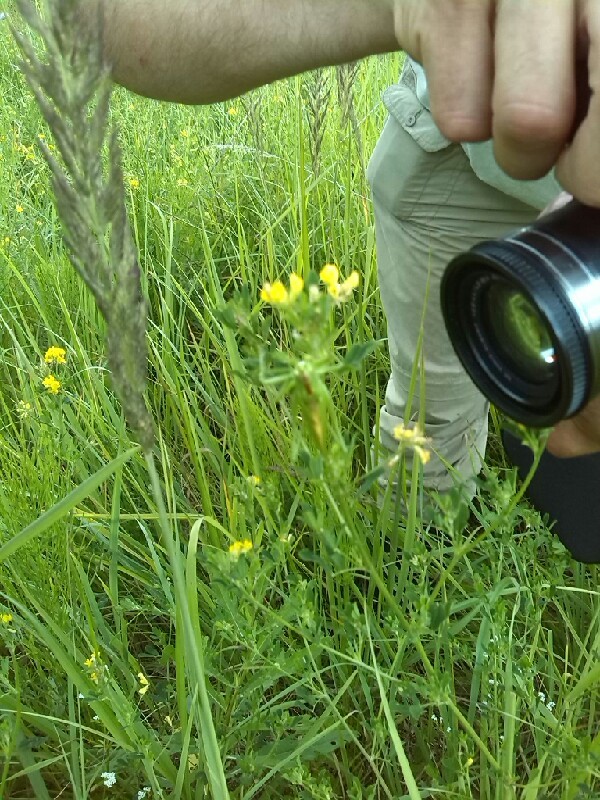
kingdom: Animalia
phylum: Arthropoda
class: Insecta
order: Orthoptera
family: Tettigoniidae
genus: Tettigonia
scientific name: Tettigonia cantans
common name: Upland green bush-cricket
